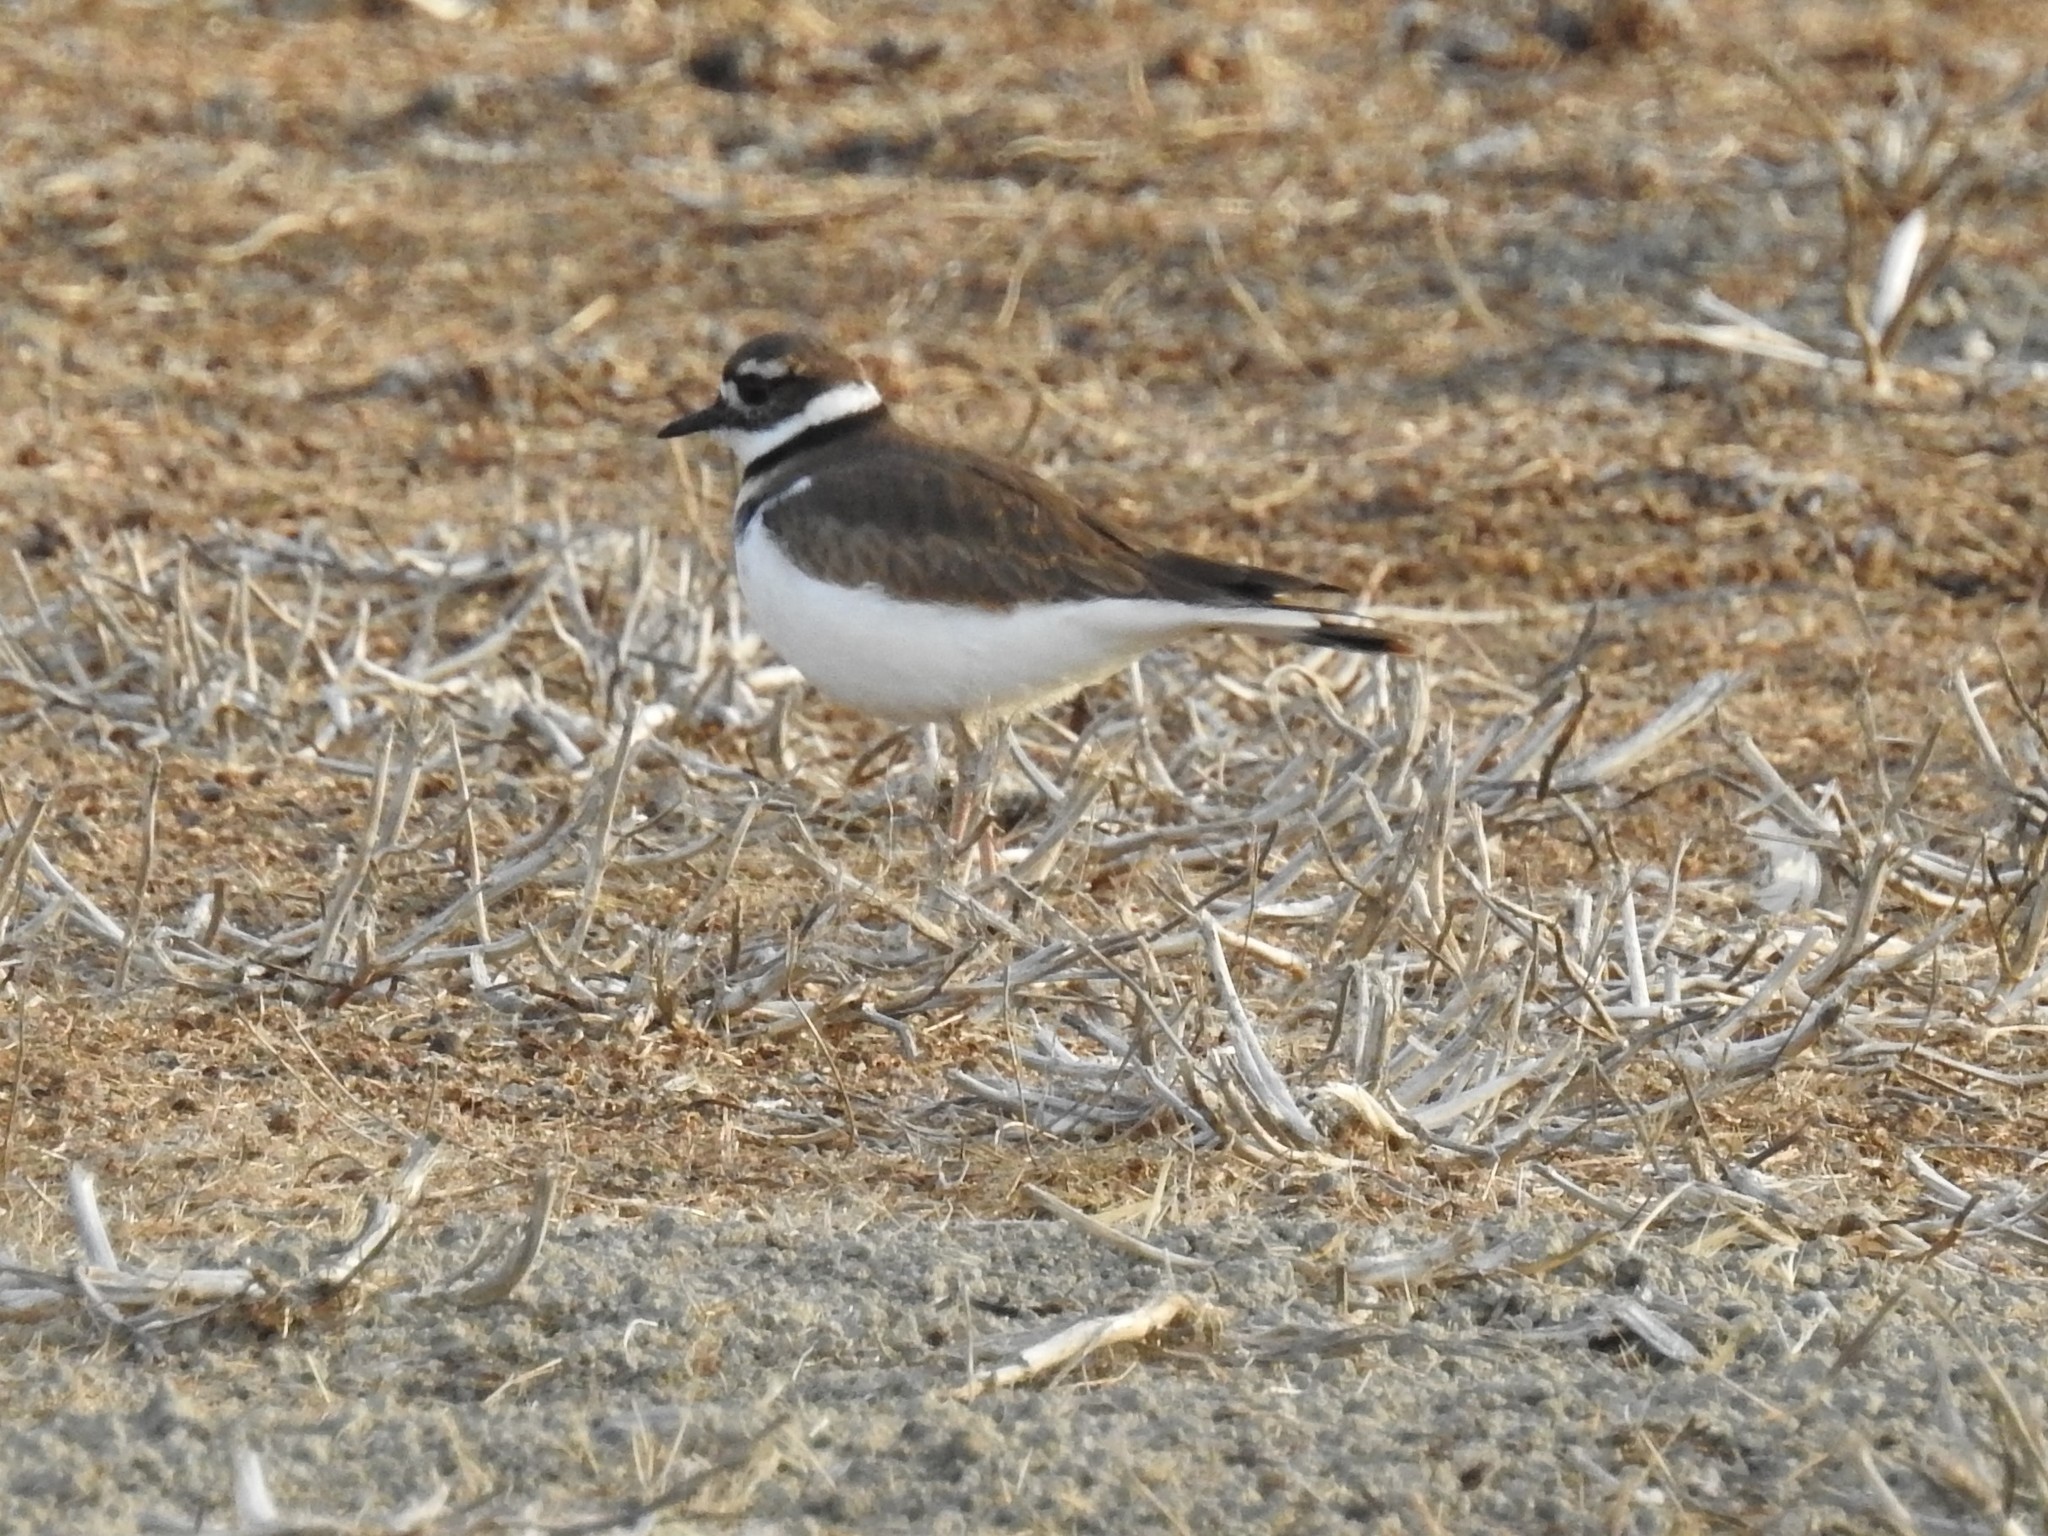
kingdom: Animalia
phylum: Chordata
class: Aves
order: Charadriiformes
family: Charadriidae
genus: Charadrius
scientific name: Charadrius vociferus
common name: Killdeer
